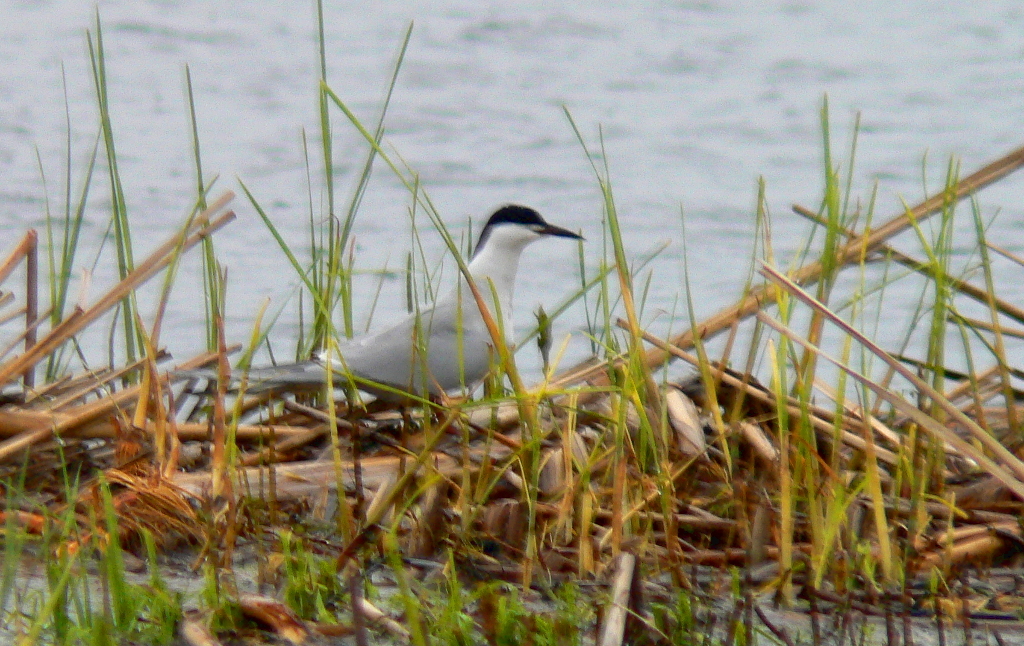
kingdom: Animalia
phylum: Chordata
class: Aves
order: Charadriiformes
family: Laridae
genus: Sterna
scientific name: Sterna hirundo
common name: Common tern
